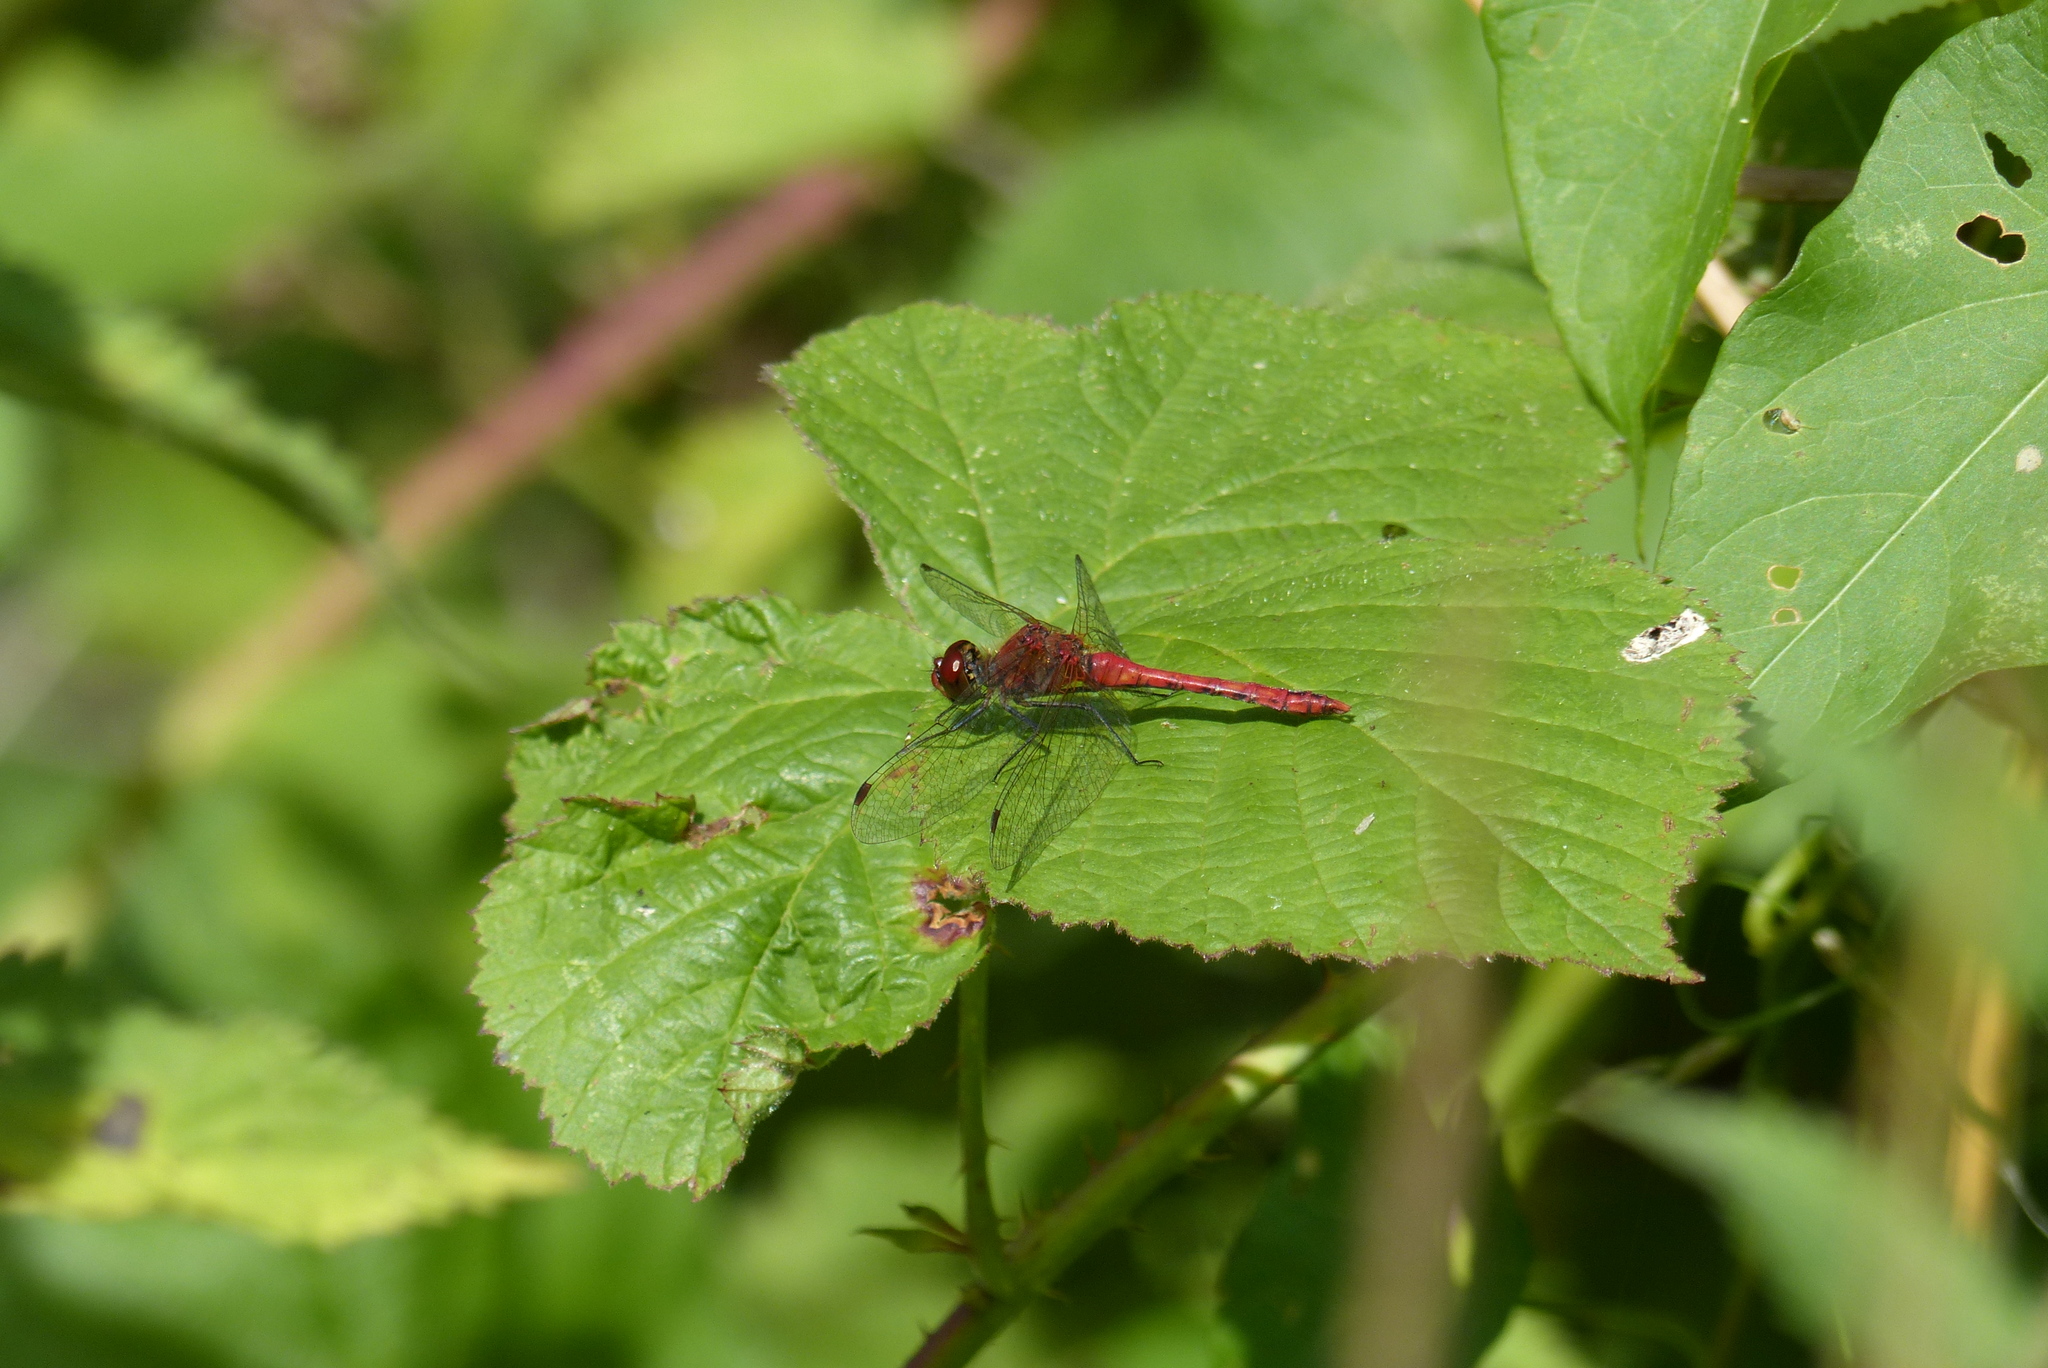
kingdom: Animalia
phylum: Arthropoda
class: Insecta
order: Odonata
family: Libellulidae
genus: Sympetrum
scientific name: Sympetrum sanguineum
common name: Ruddy darter
